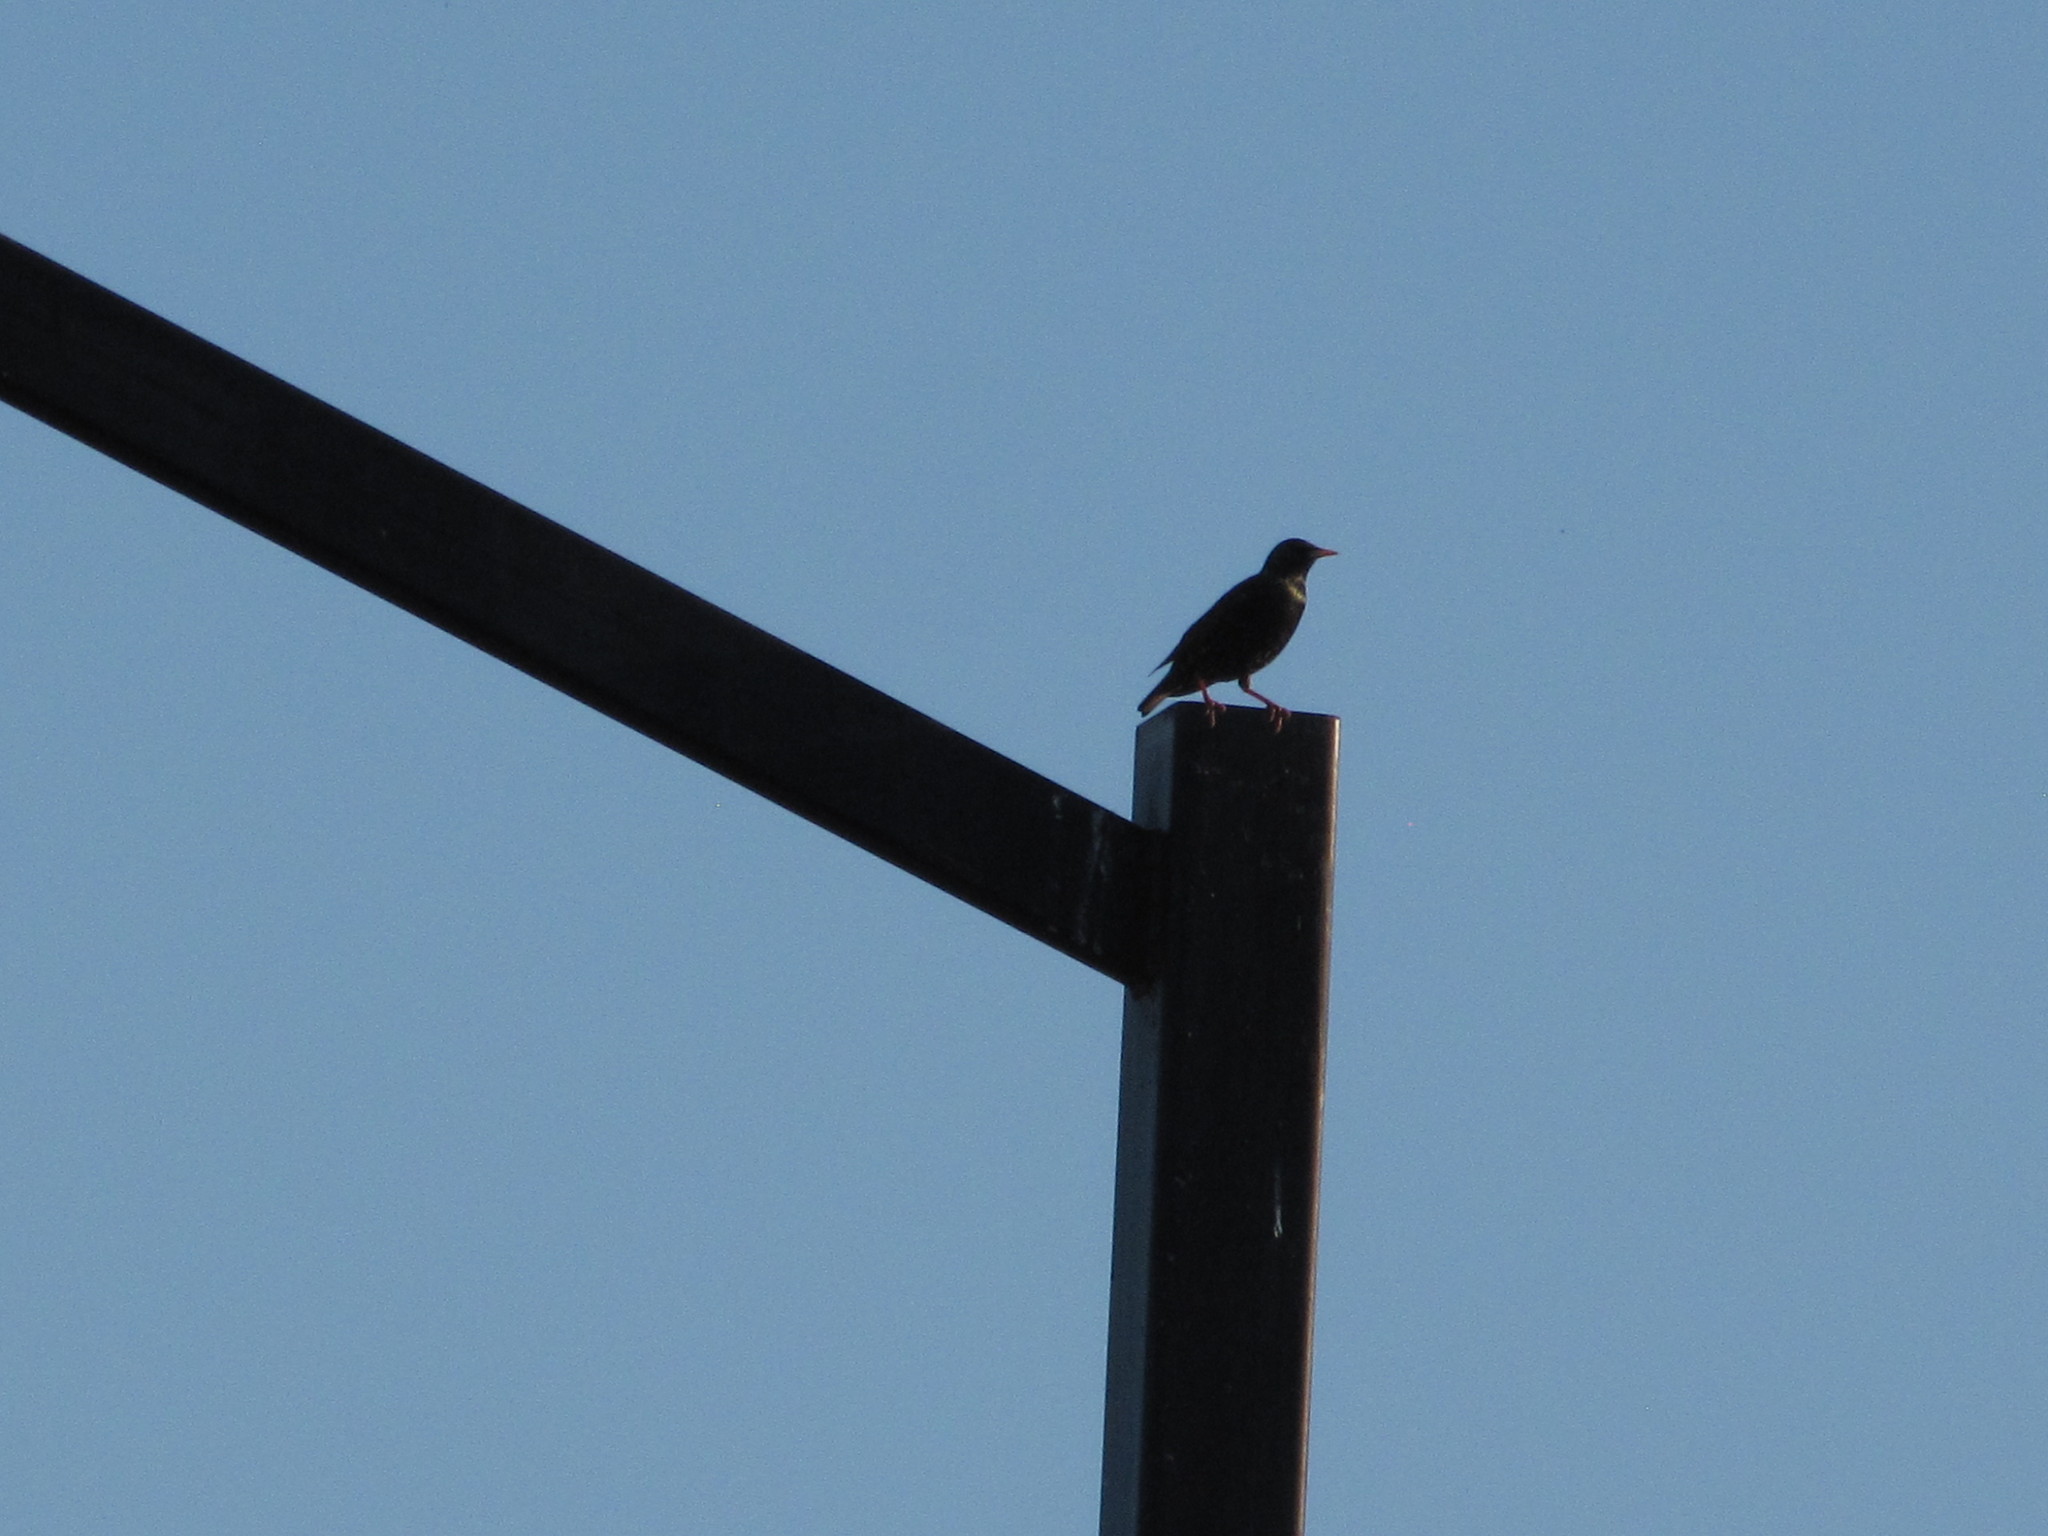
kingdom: Animalia
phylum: Chordata
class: Aves
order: Passeriformes
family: Sturnidae
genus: Sturnus
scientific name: Sturnus vulgaris
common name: Common starling
